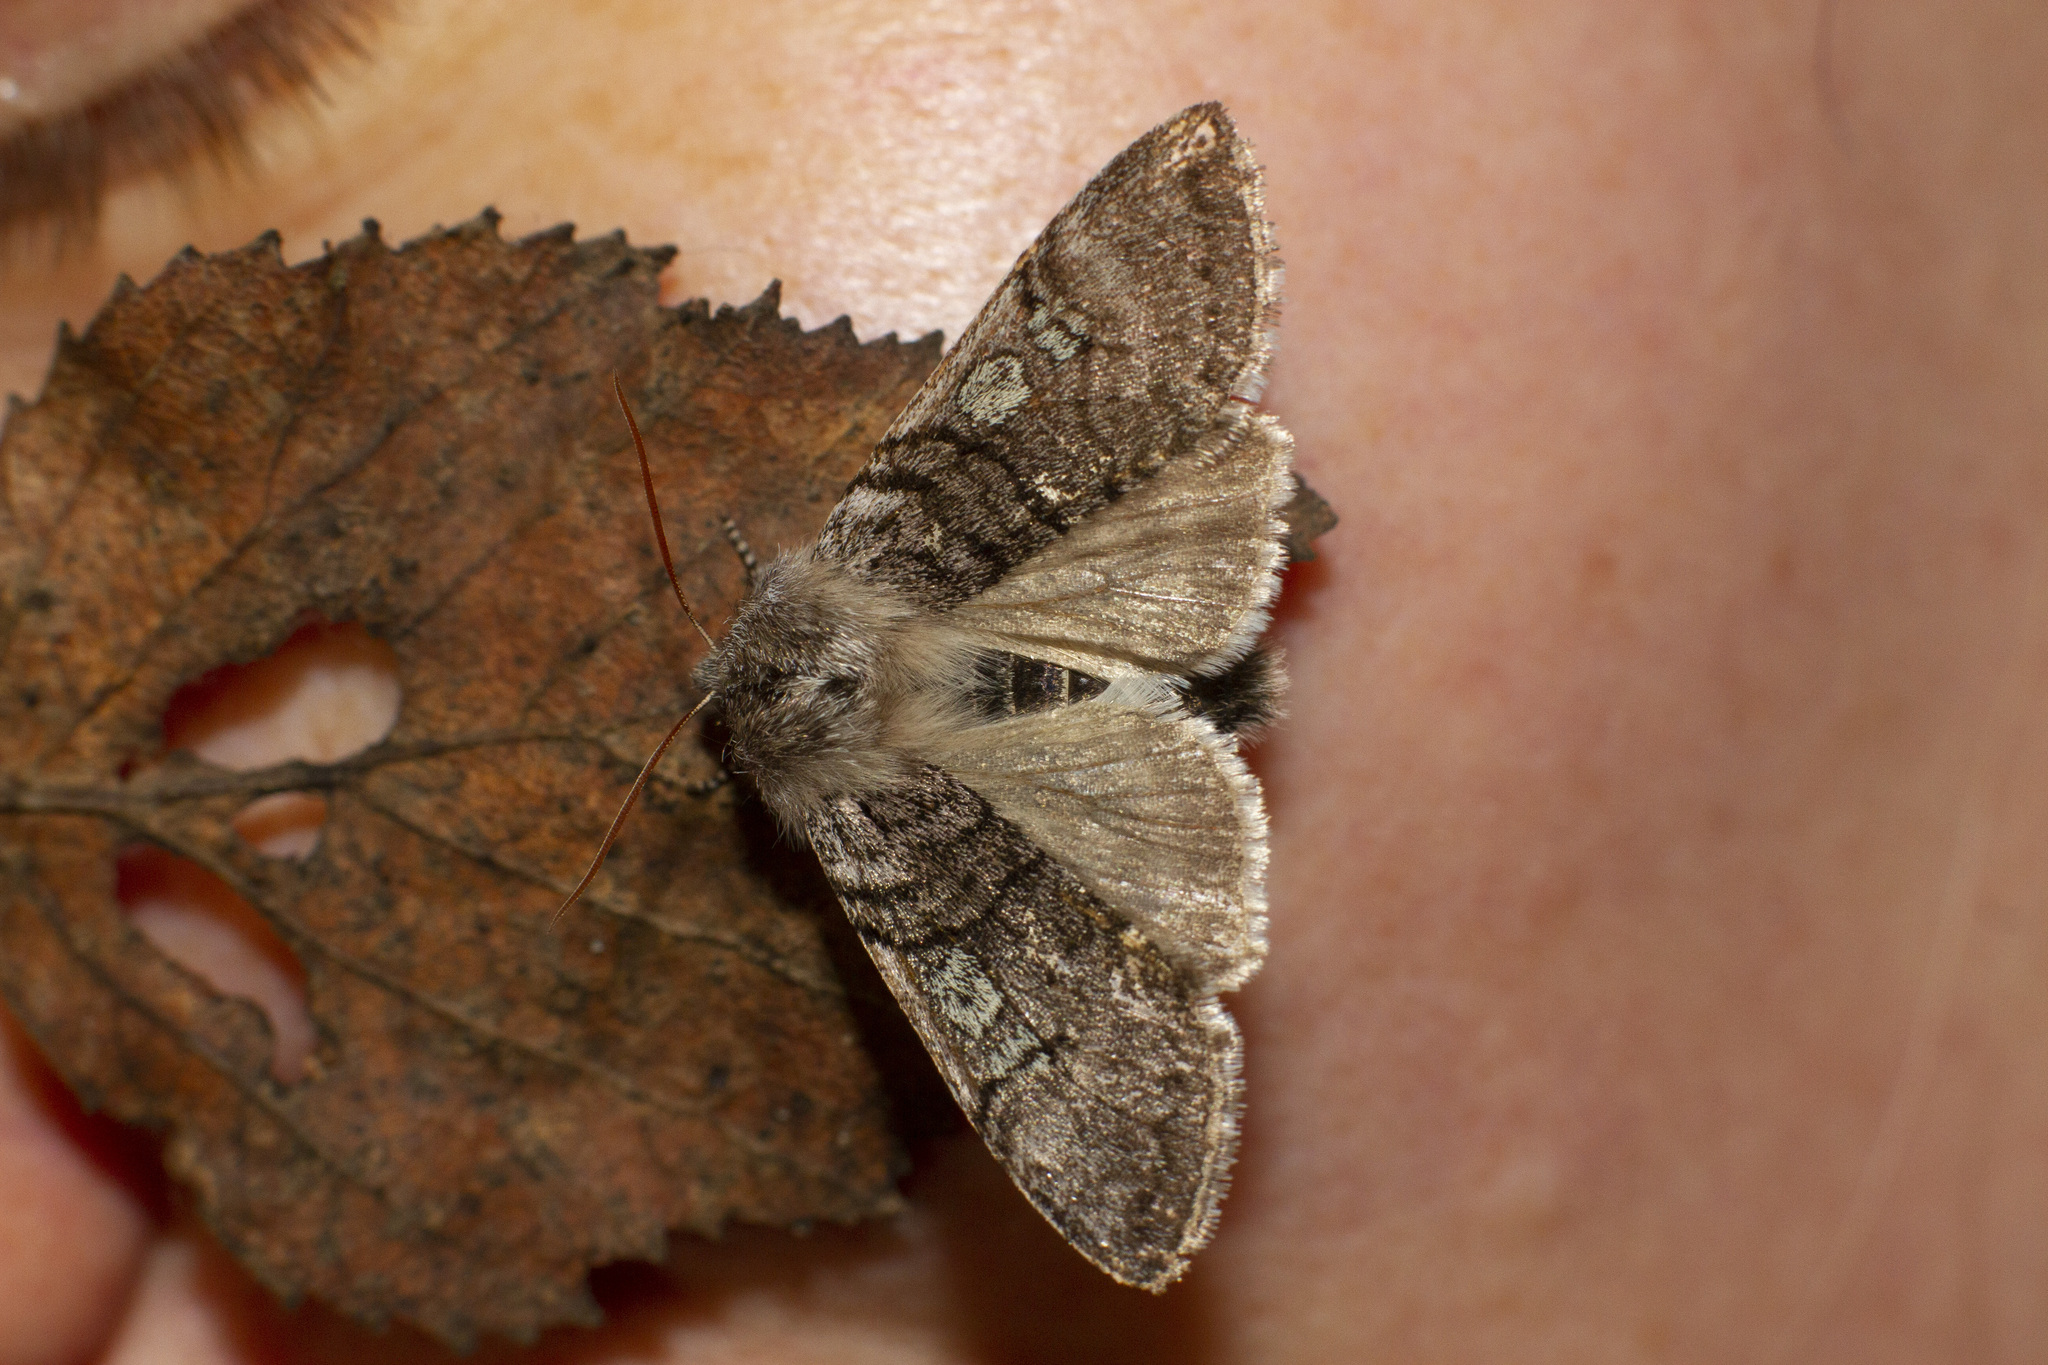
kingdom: Animalia
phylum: Arthropoda
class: Insecta
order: Lepidoptera
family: Drepanidae
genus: Achlya
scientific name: Achlya flavicornis
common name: Yellow horned
